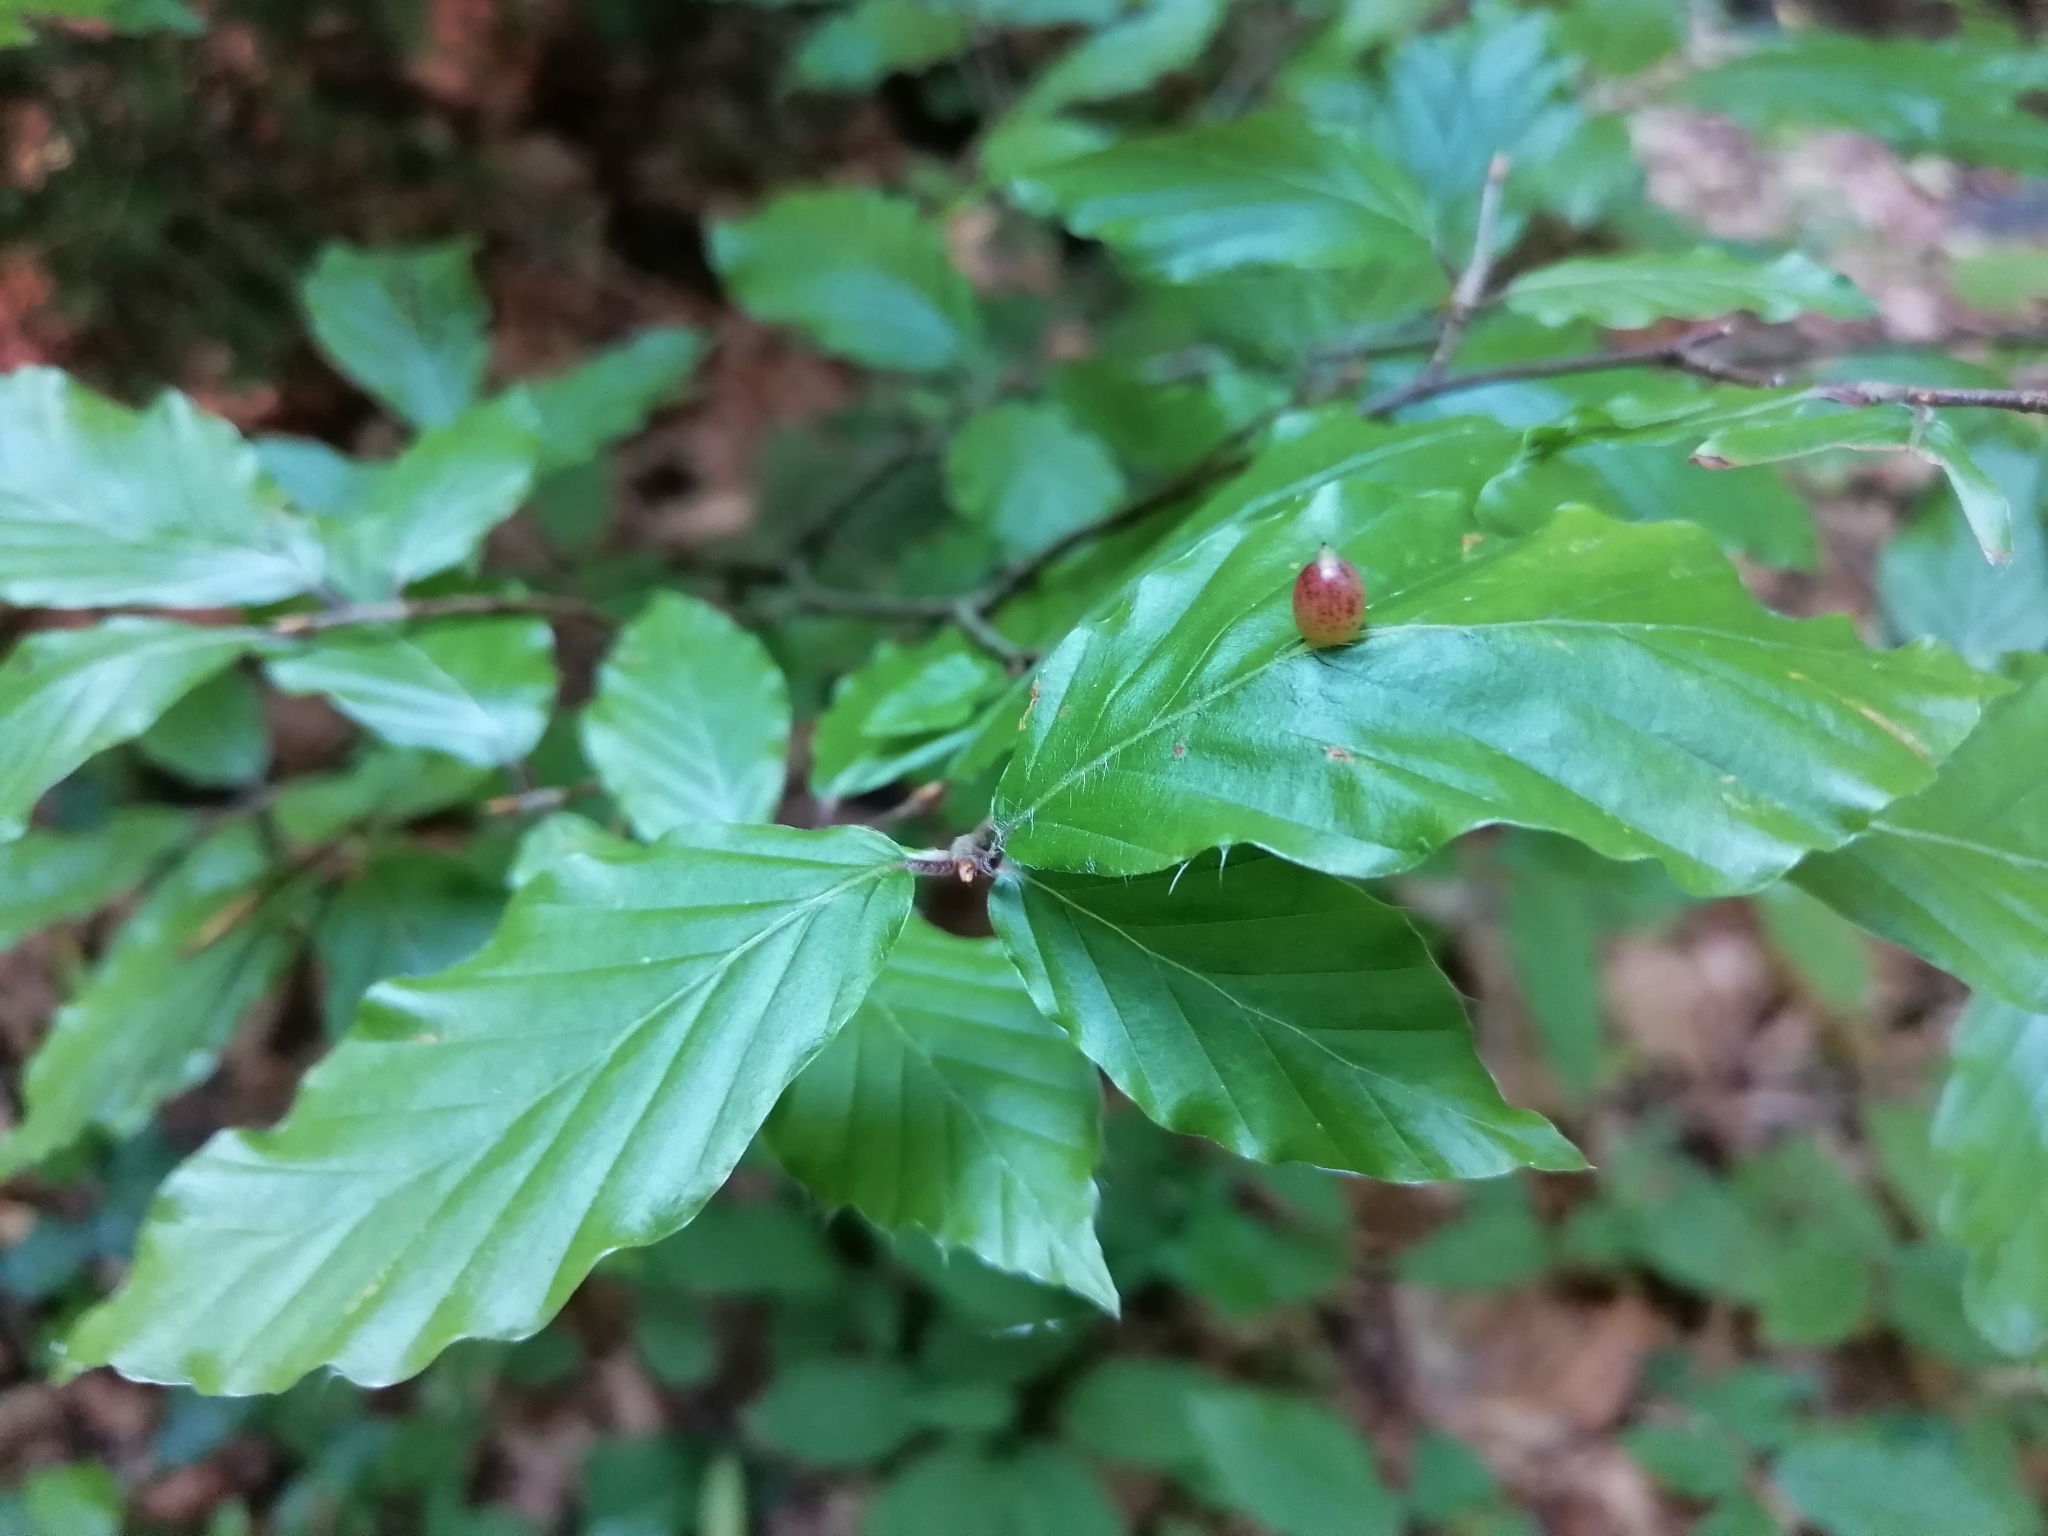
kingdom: Animalia
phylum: Arthropoda
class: Insecta
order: Diptera
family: Cecidomyiidae
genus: Mikiola
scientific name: Mikiola fagi
